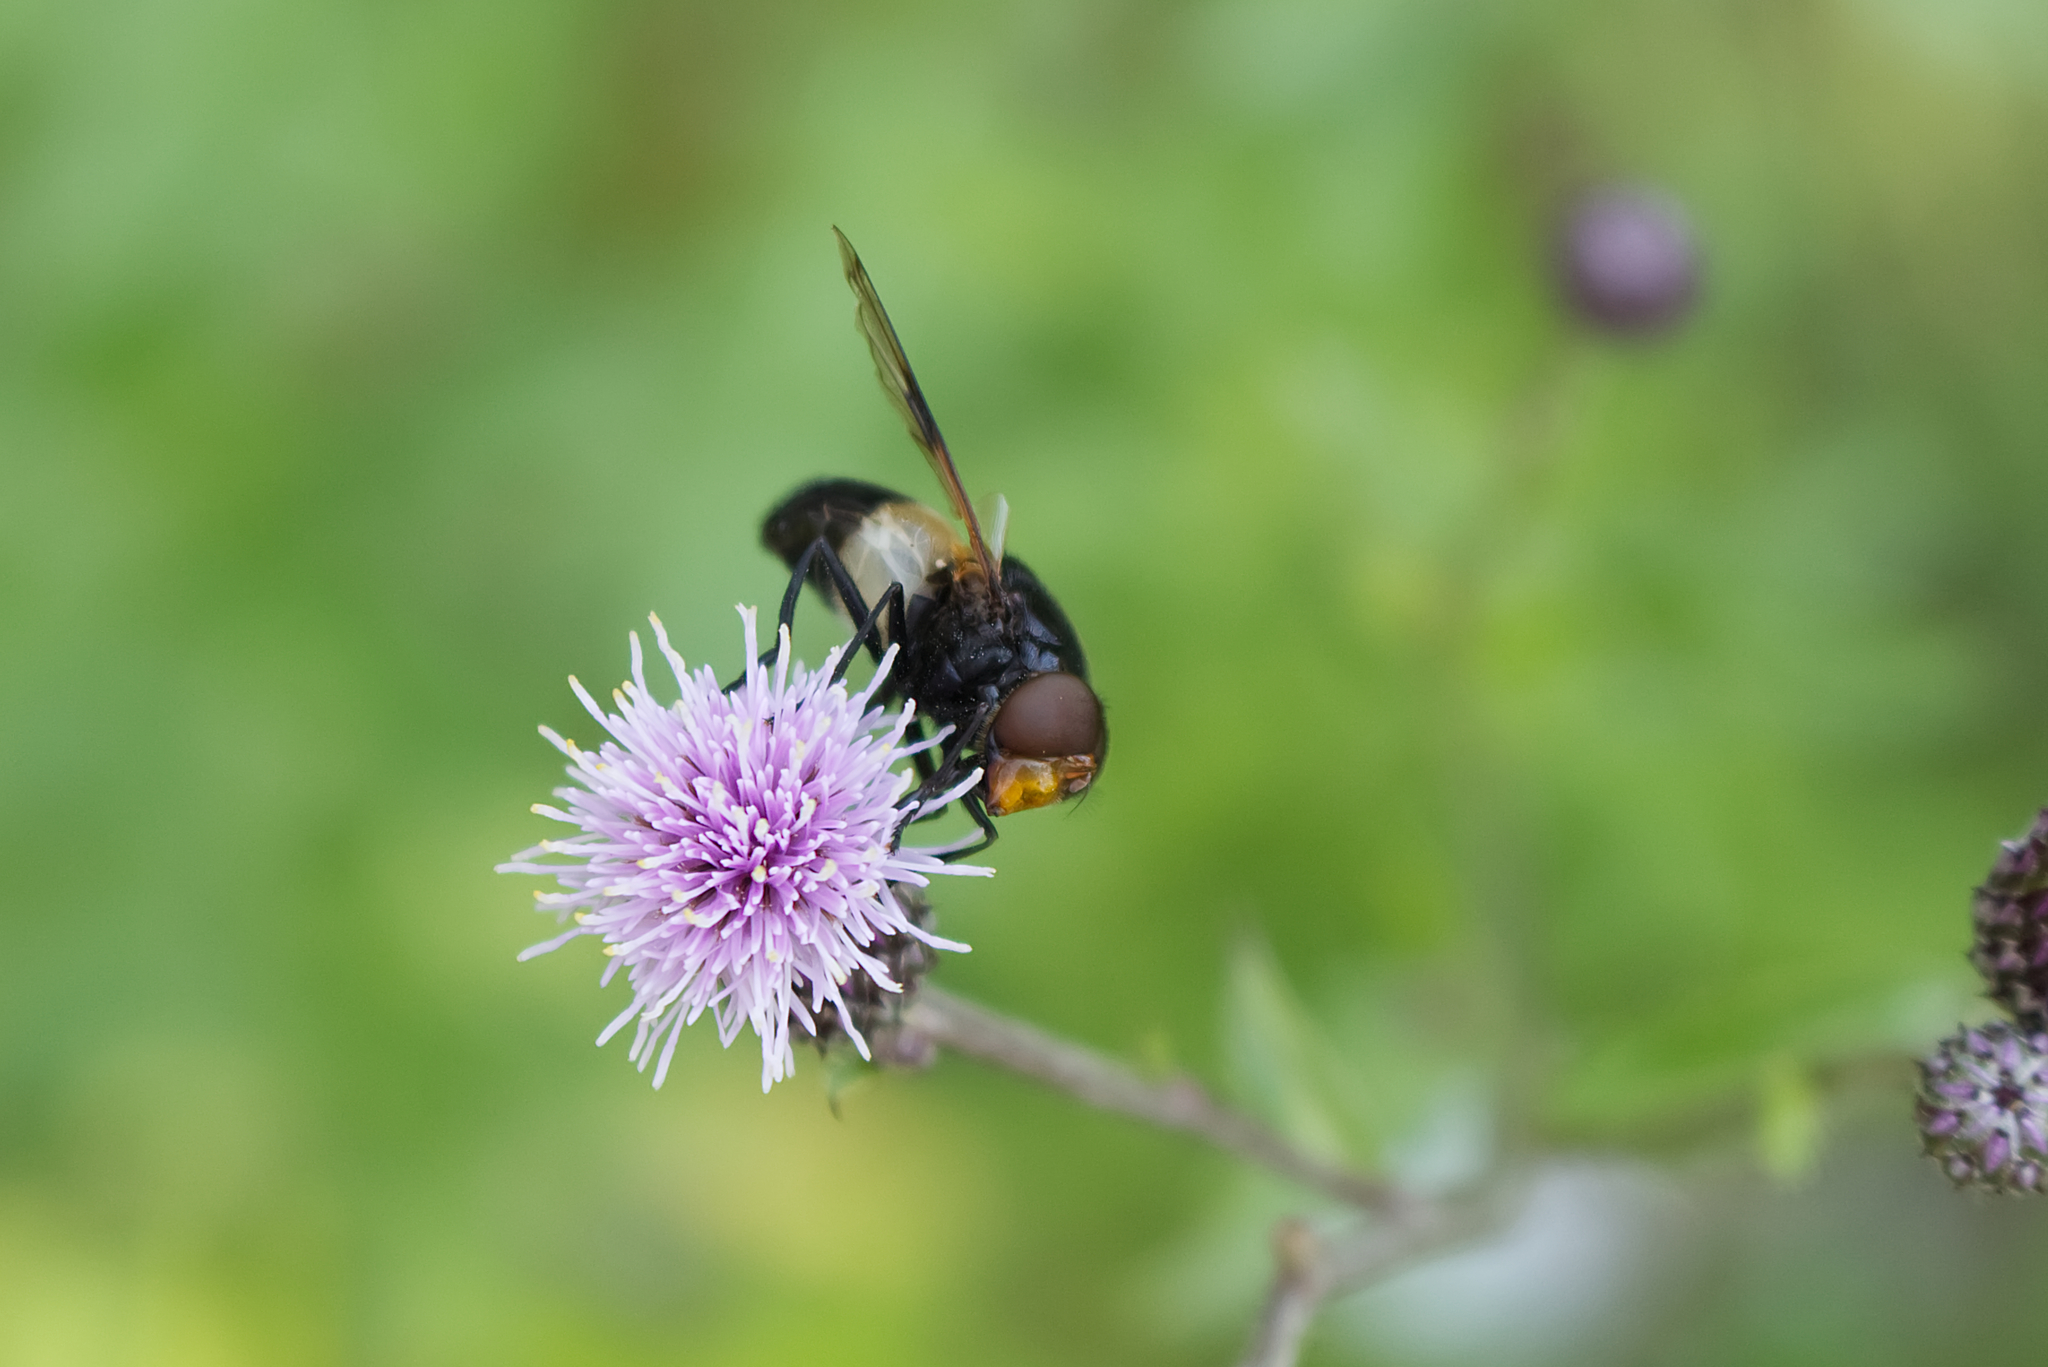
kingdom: Animalia
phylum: Arthropoda
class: Insecta
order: Diptera
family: Syrphidae
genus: Volucella
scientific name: Volucella pellucens
